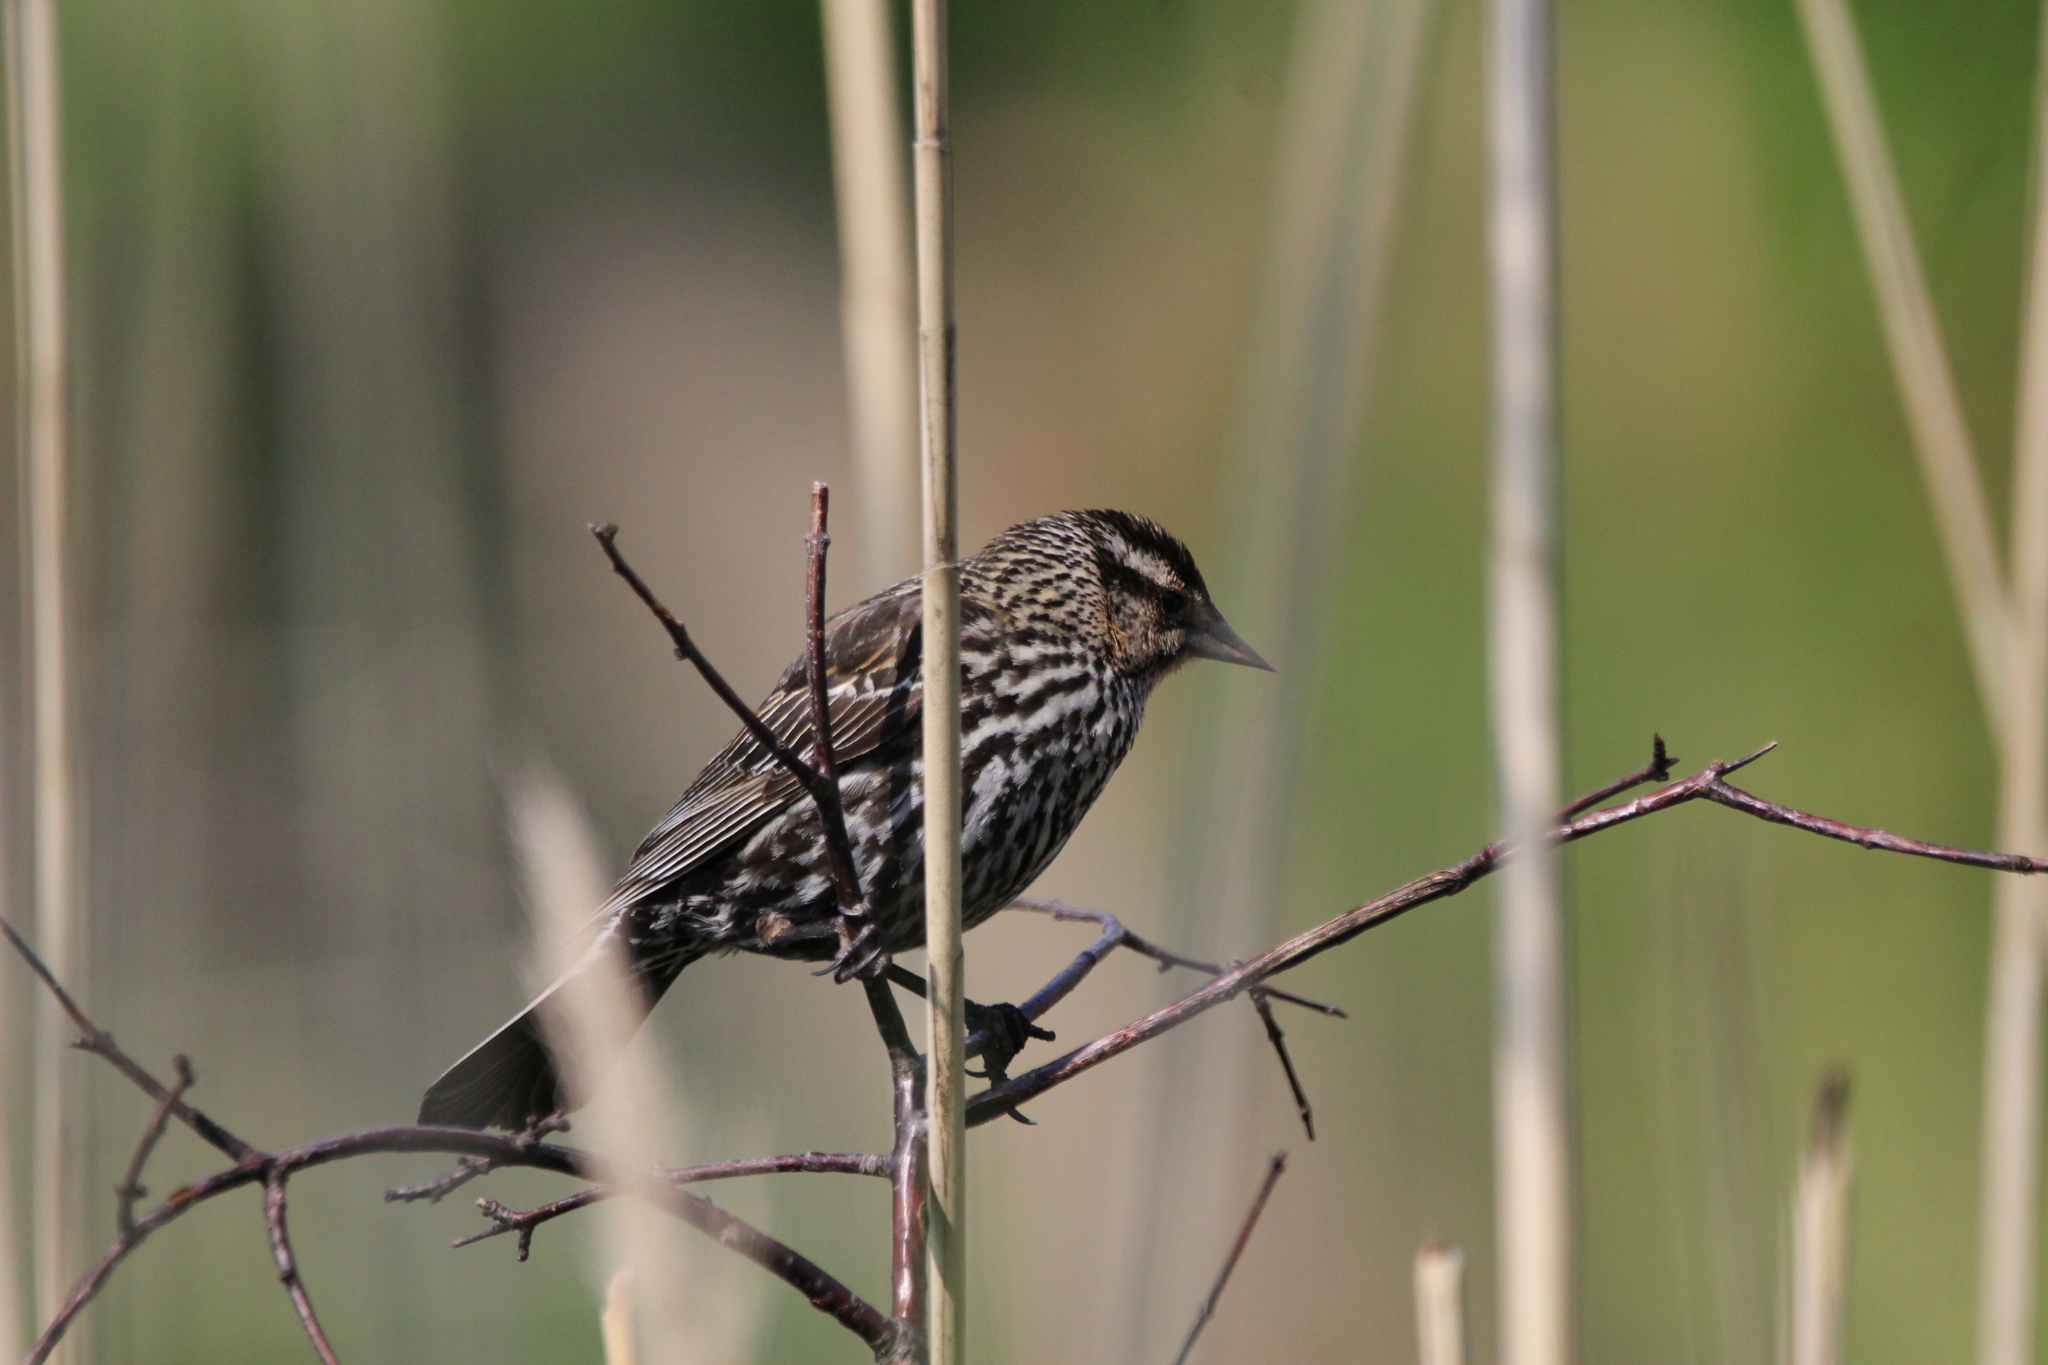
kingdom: Animalia
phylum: Chordata
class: Aves
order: Passeriformes
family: Icteridae
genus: Agelaius
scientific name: Agelaius phoeniceus
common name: Red-winged blackbird
